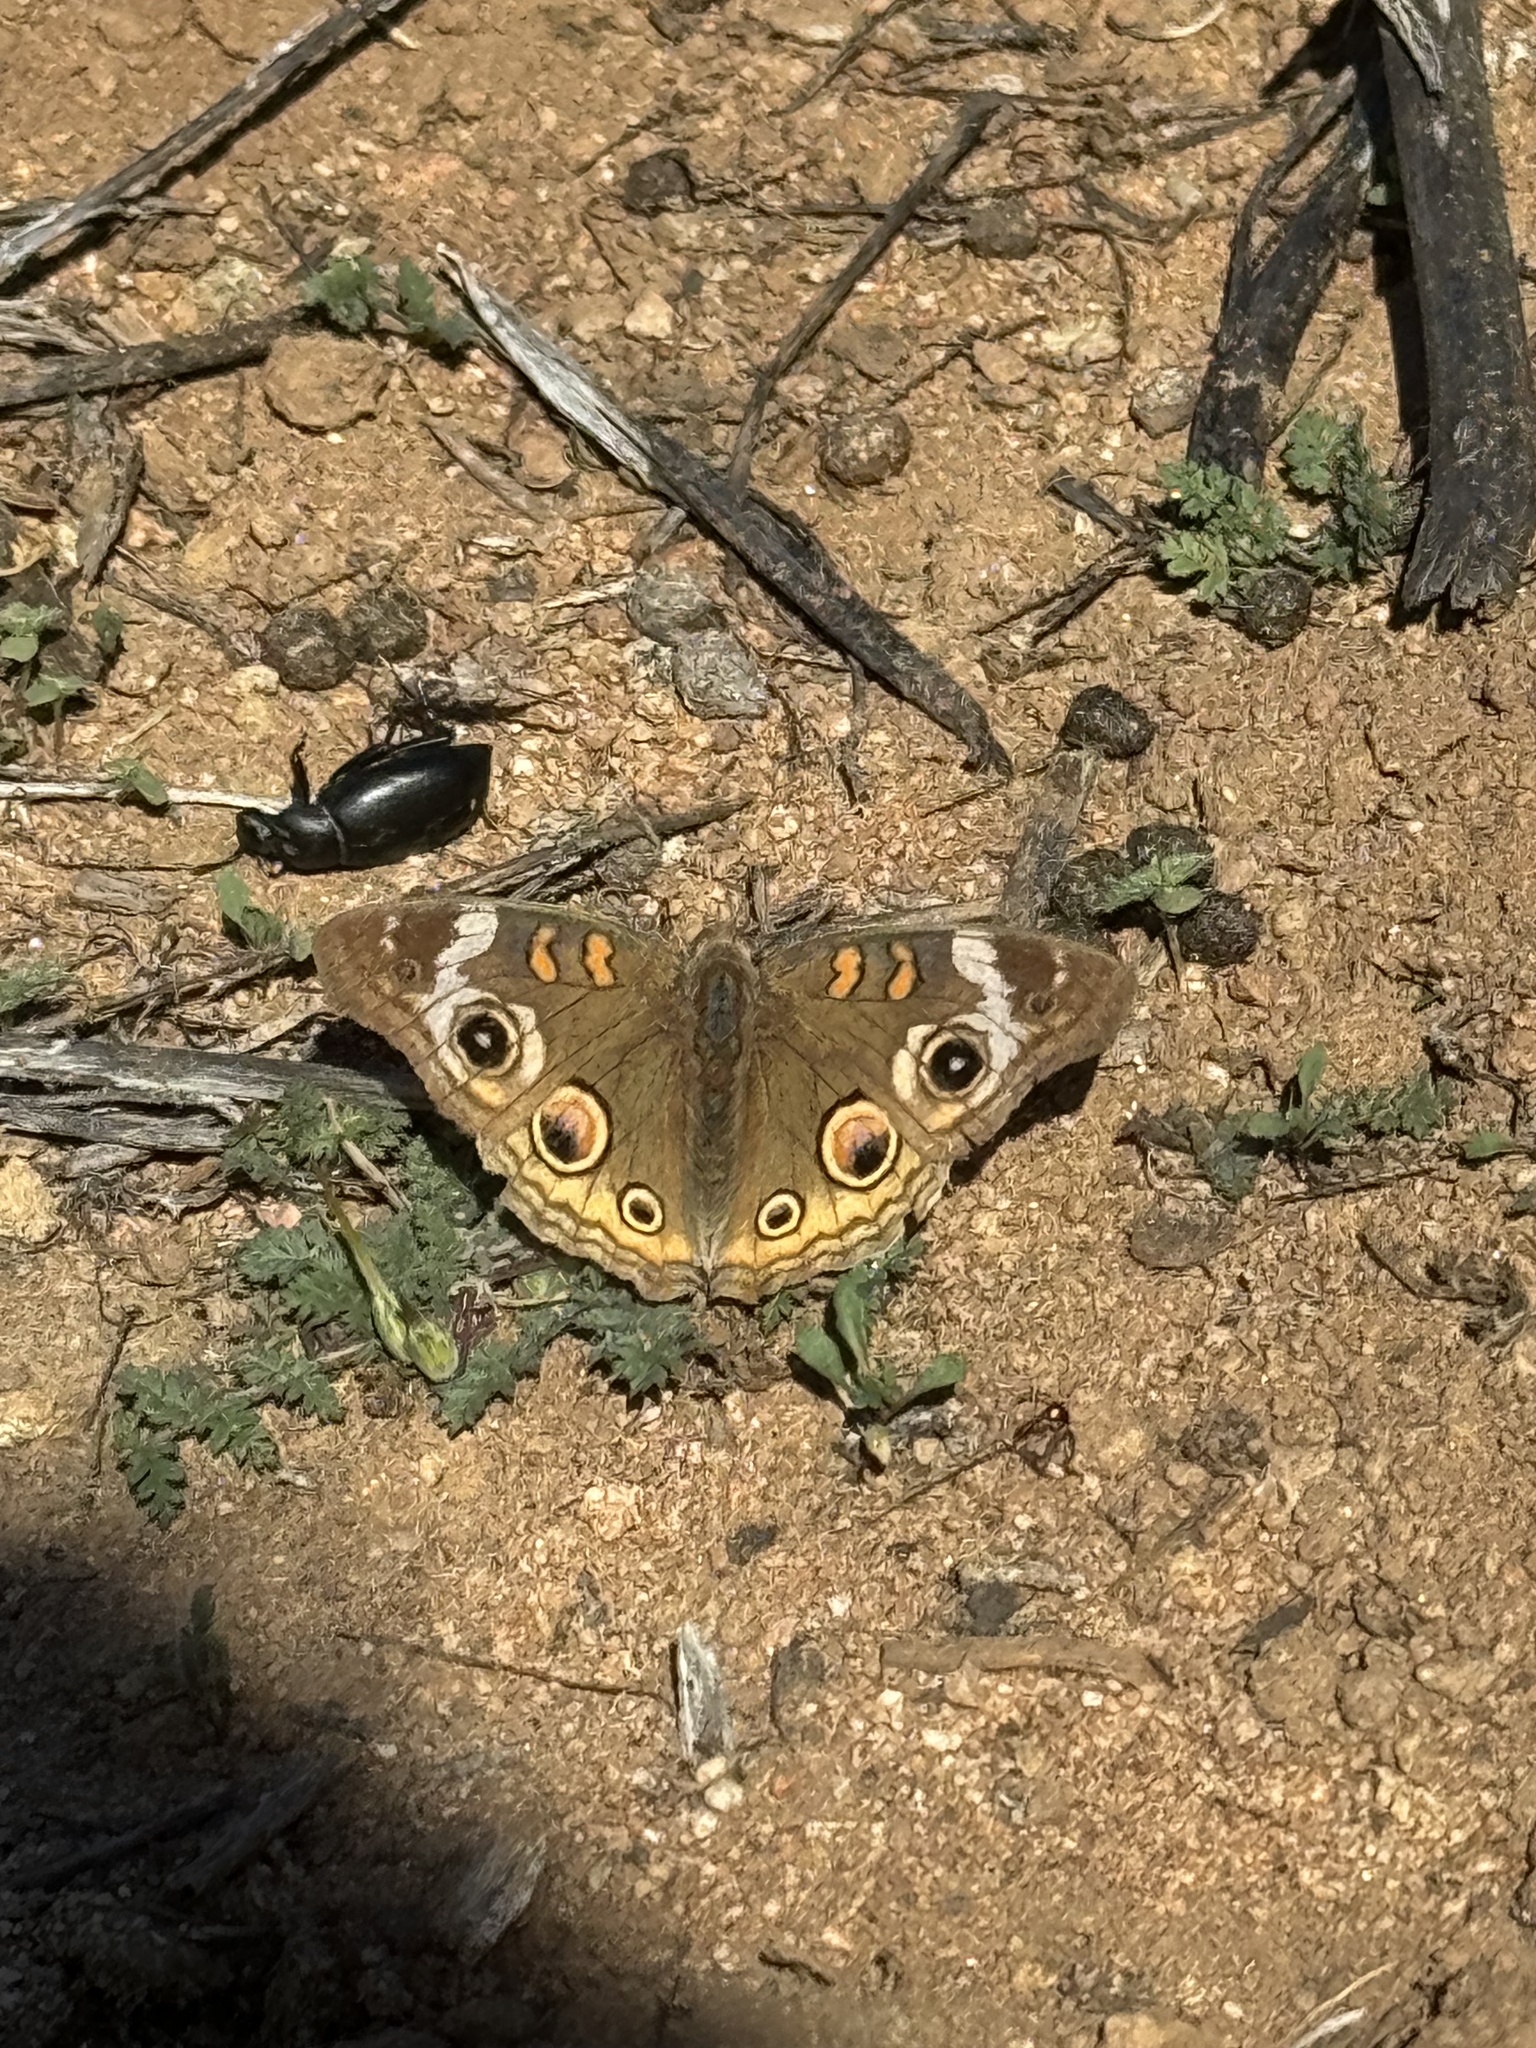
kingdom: Animalia
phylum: Arthropoda
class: Insecta
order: Lepidoptera
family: Nymphalidae
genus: Junonia
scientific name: Junonia grisea
